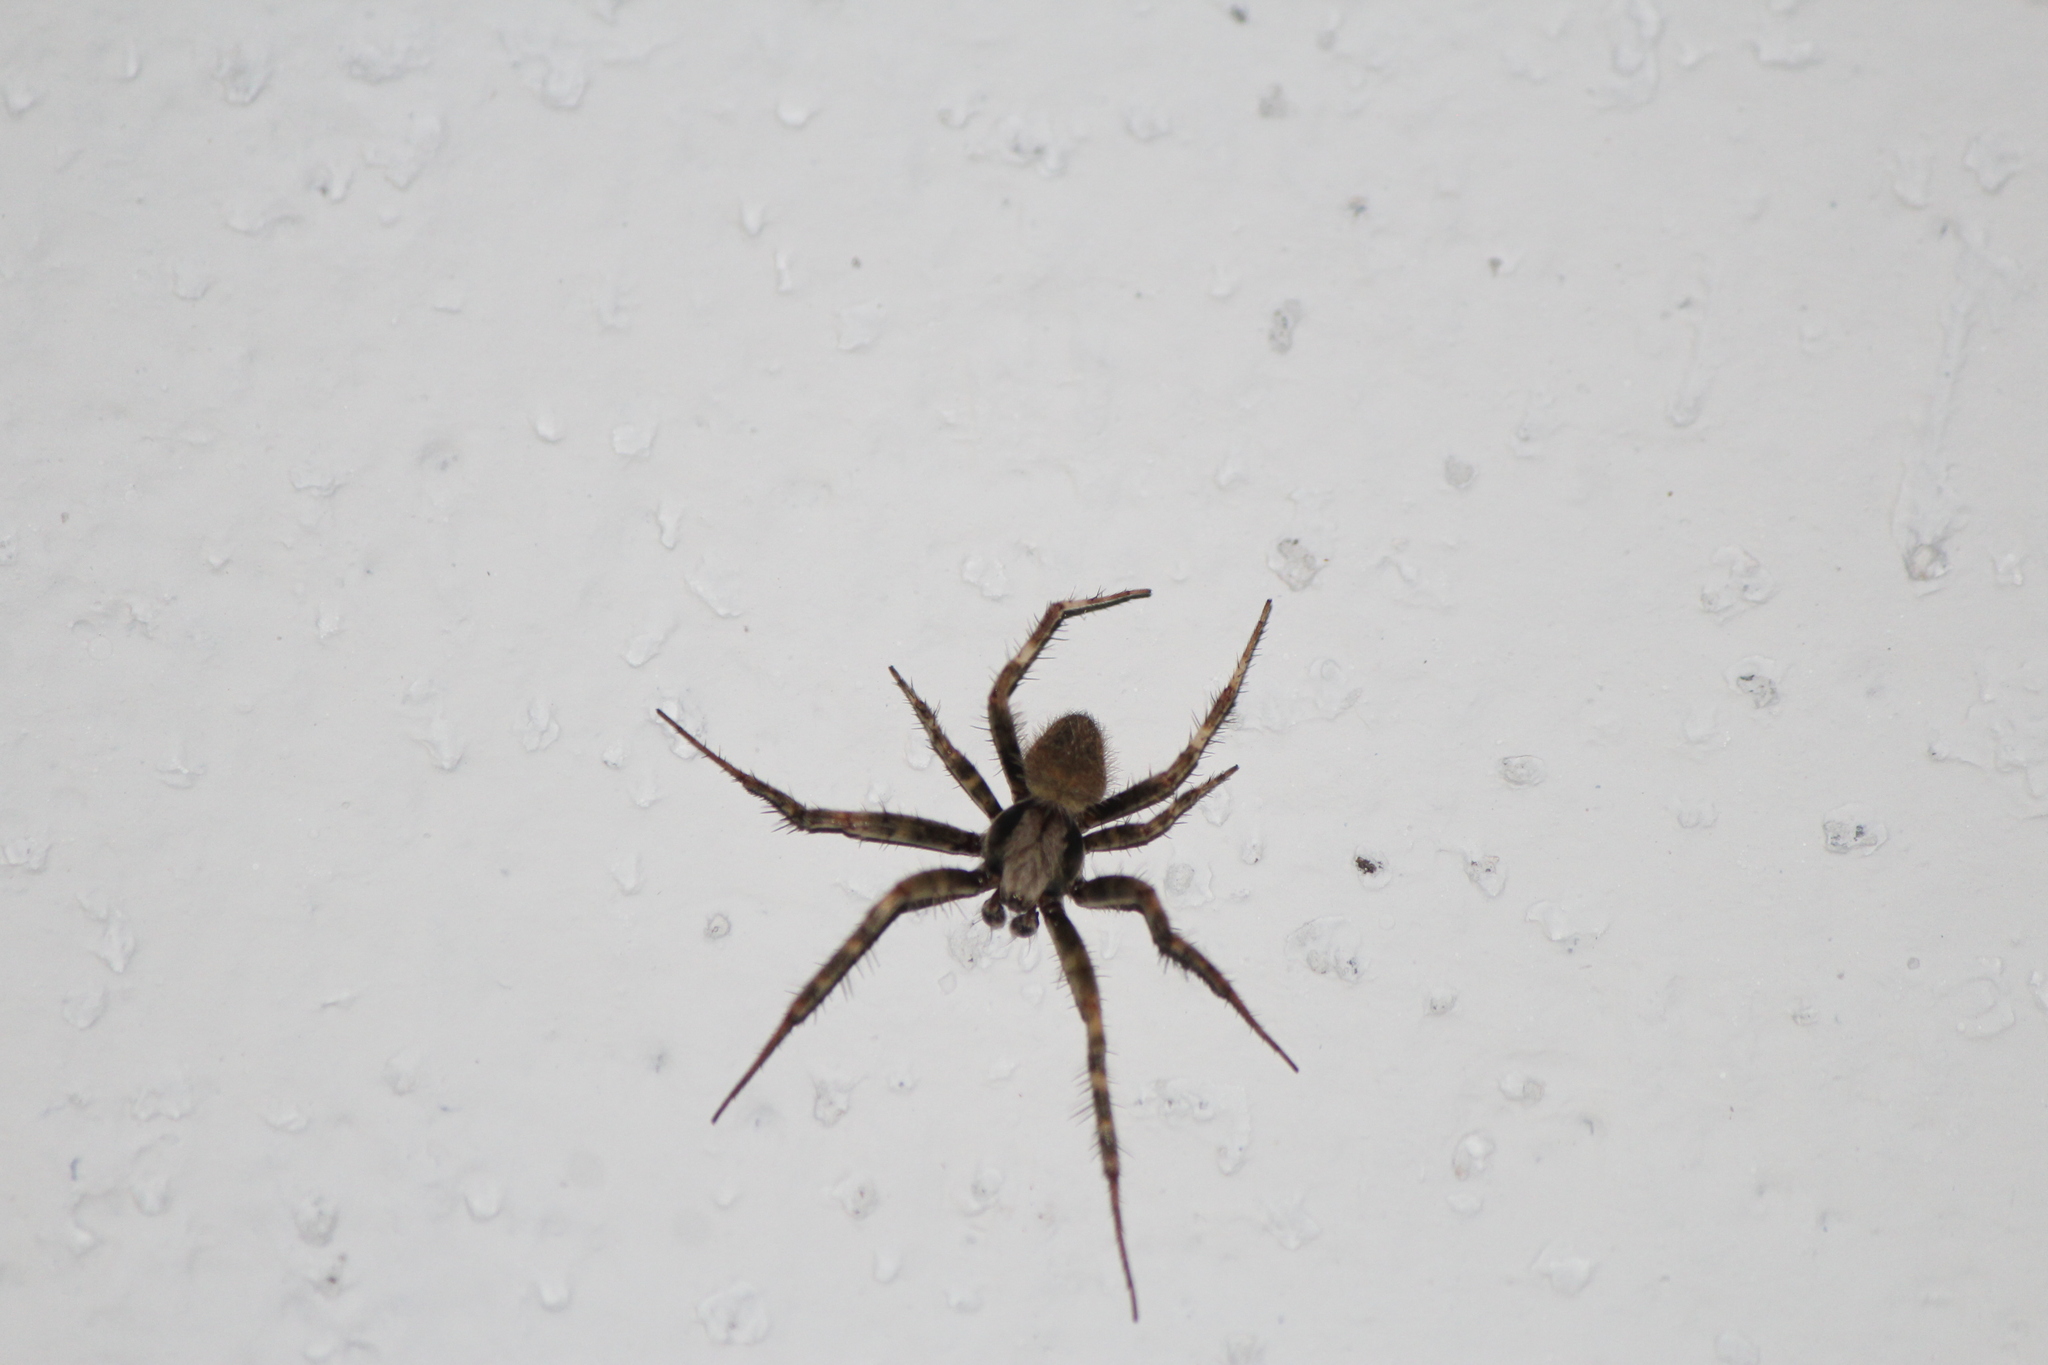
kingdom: Animalia
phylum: Arthropoda
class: Arachnida
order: Araneae
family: Araneidae
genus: Neoscona
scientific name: Neoscona crucifera
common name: Spotted orbweaver
